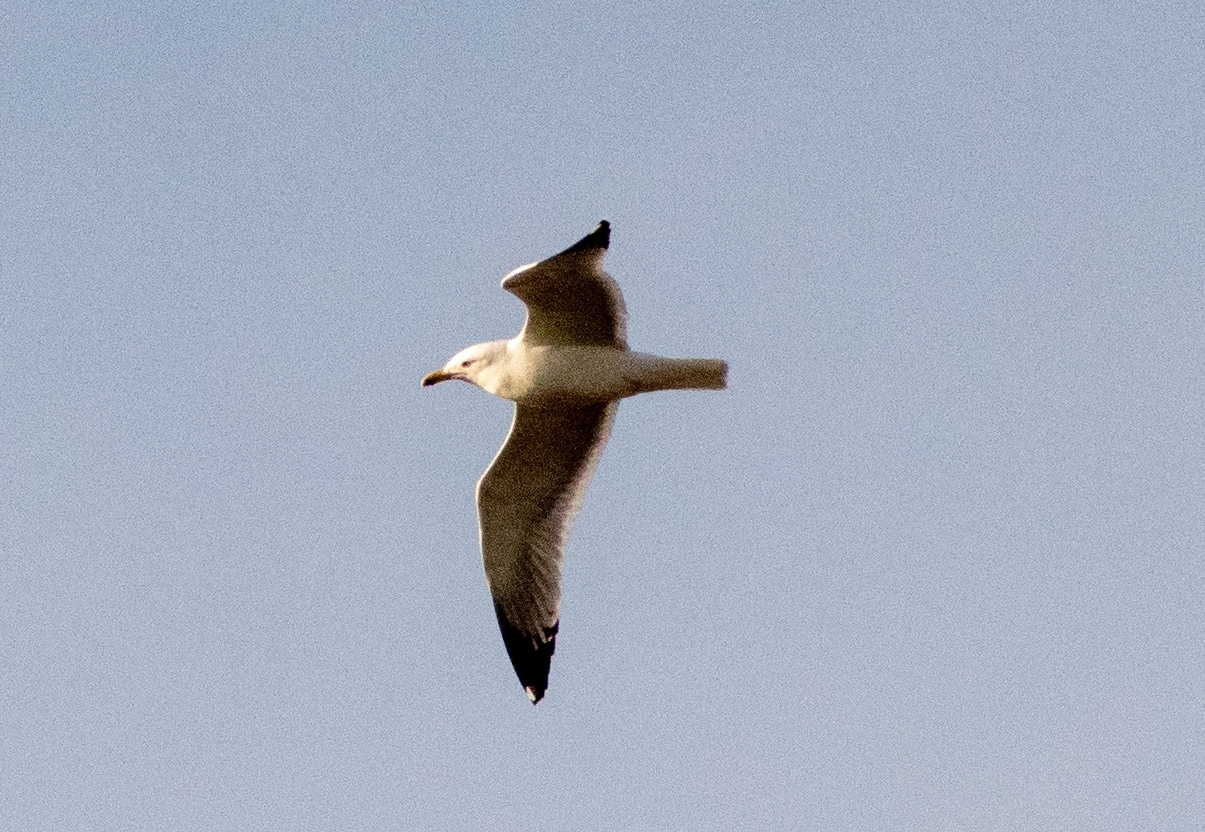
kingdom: Animalia
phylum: Chordata
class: Aves
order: Charadriiformes
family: Laridae
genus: Larus
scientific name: Larus michahellis
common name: Yellow-legged gull
